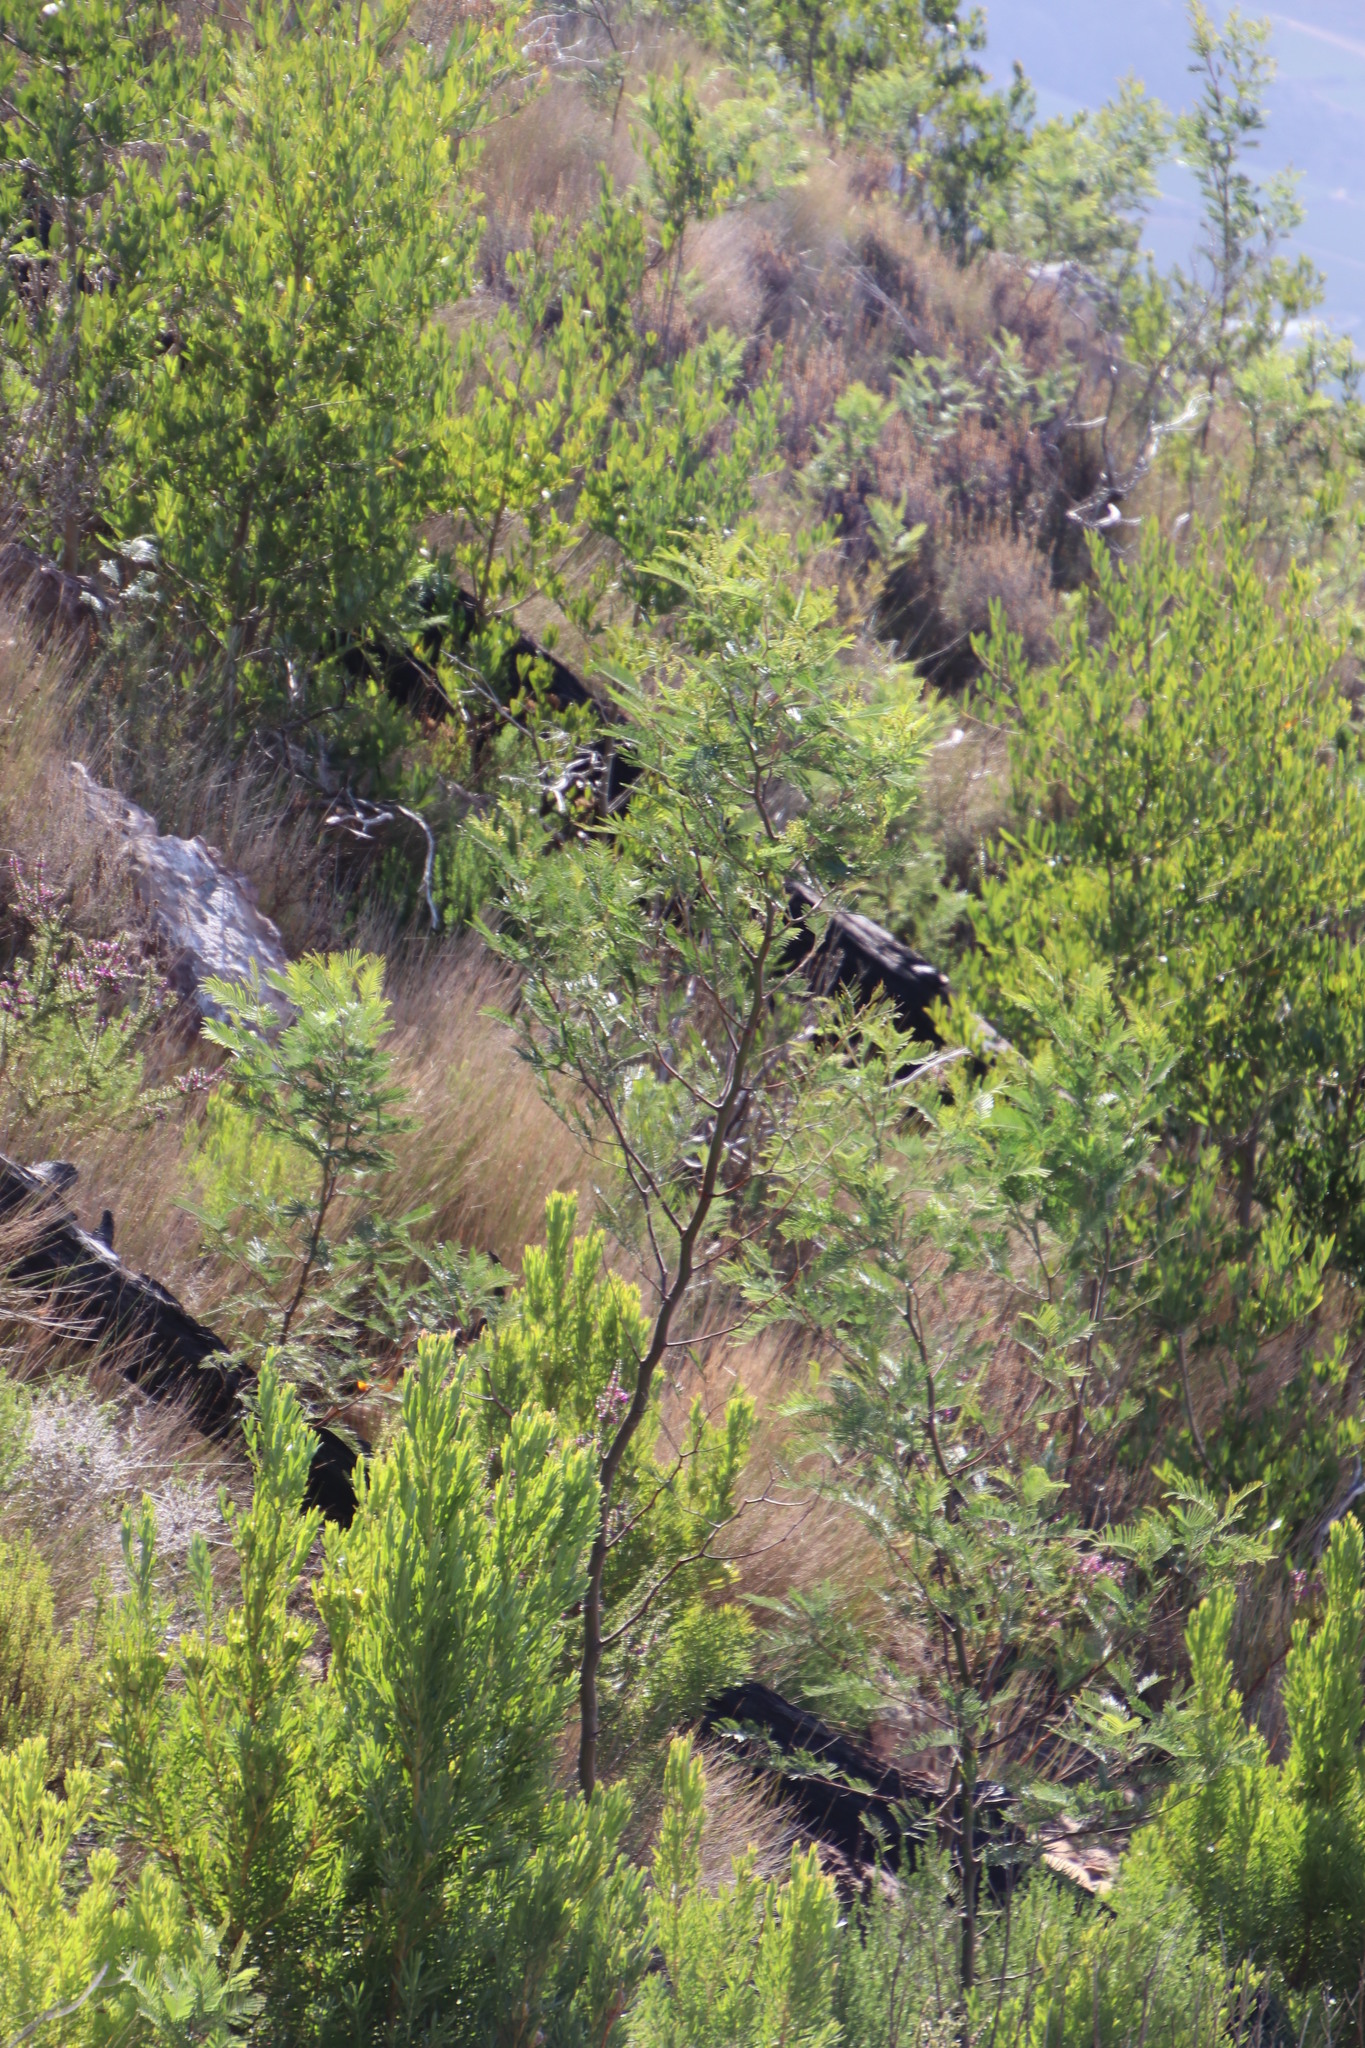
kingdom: Plantae
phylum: Tracheophyta
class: Magnoliopsida
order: Fabales
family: Fabaceae
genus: Acacia
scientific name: Acacia mearnsii
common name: Black wattle
